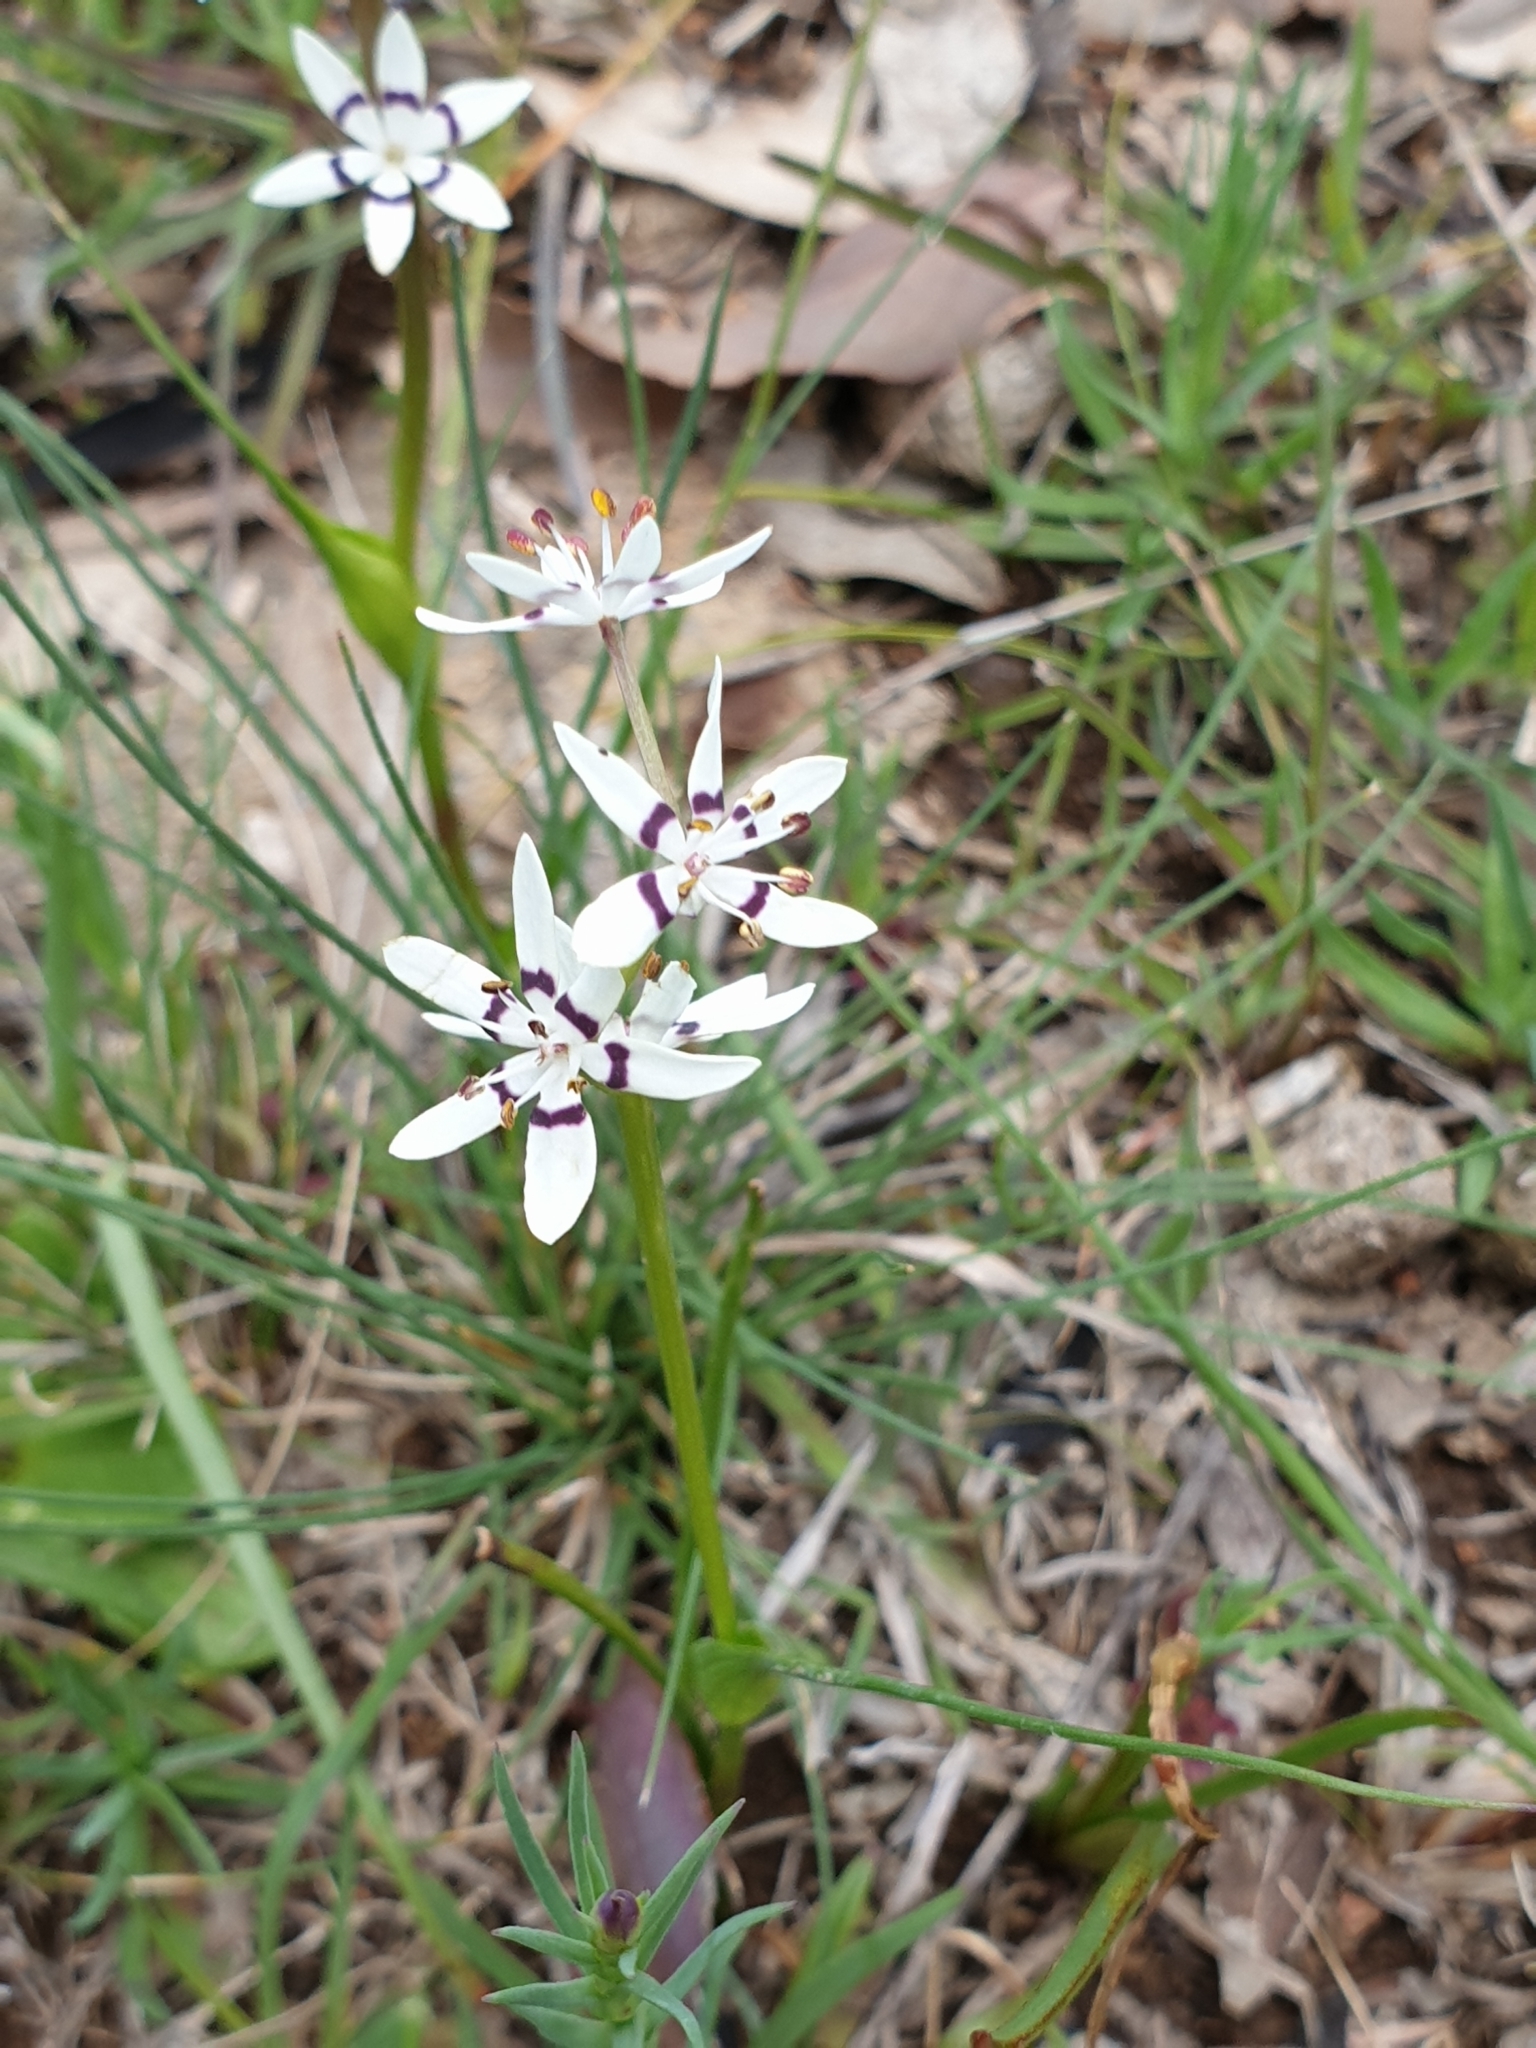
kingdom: Plantae
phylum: Tracheophyta
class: Liliopsida
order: Liliales
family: Colchicaceae
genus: Wurmbea
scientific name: Wurmbea dioica
